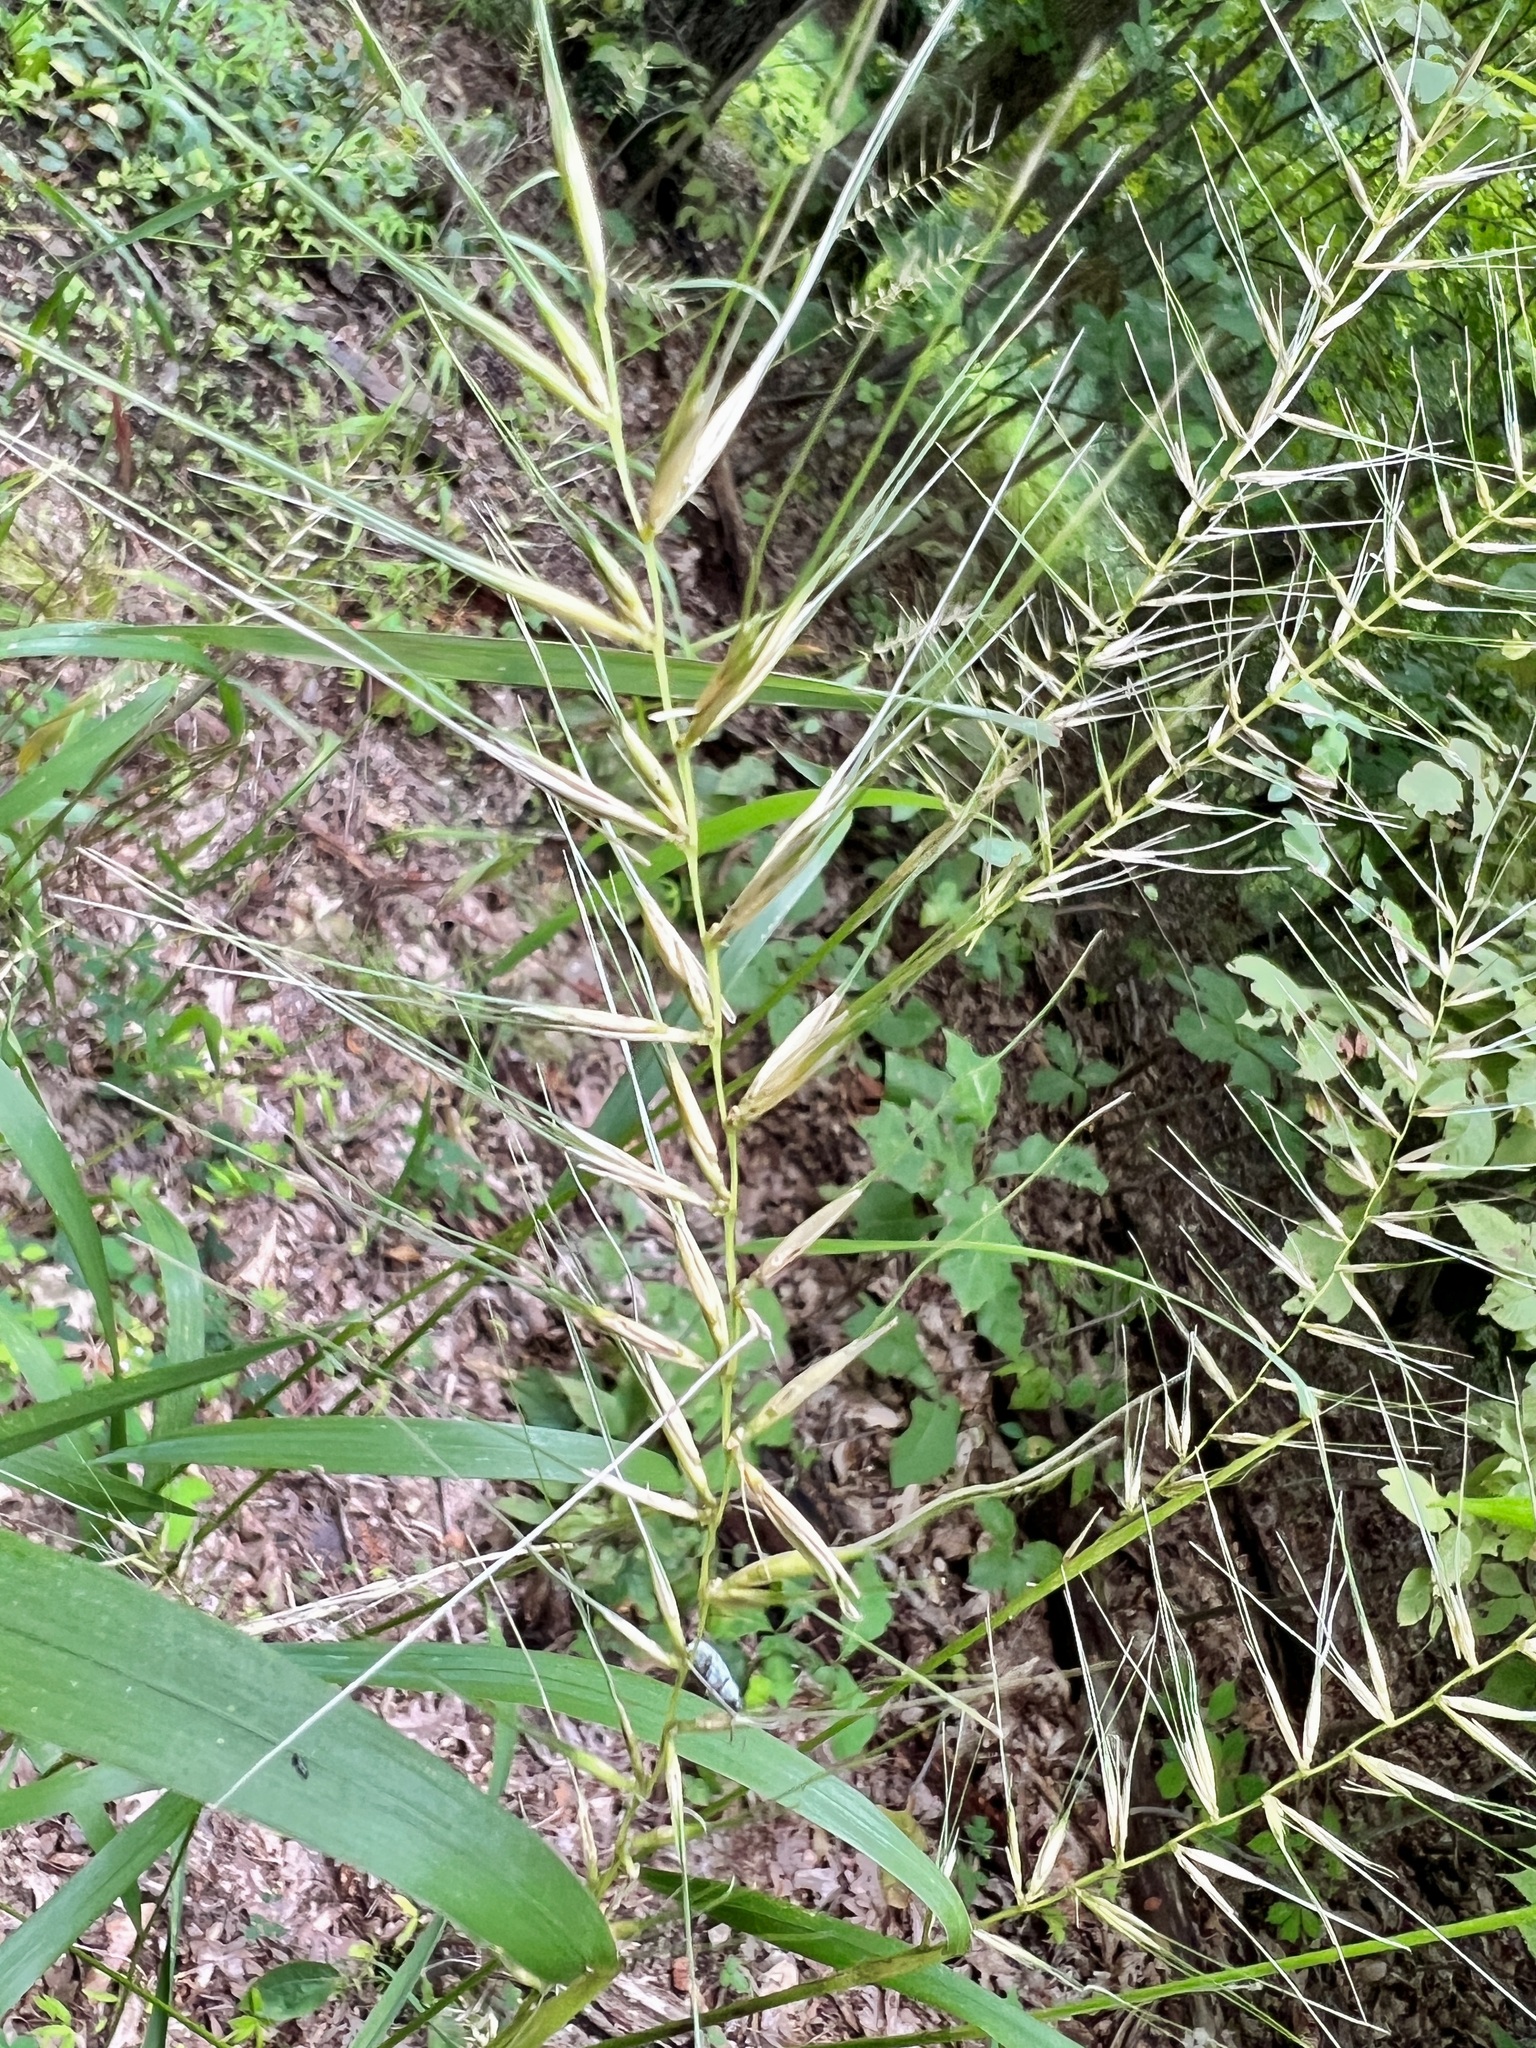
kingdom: Plantae
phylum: Tracheophyta
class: Liliopsida
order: Poales
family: Poaceae
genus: Elymus
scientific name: Elymus hystrix
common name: Bottlebrush grass
